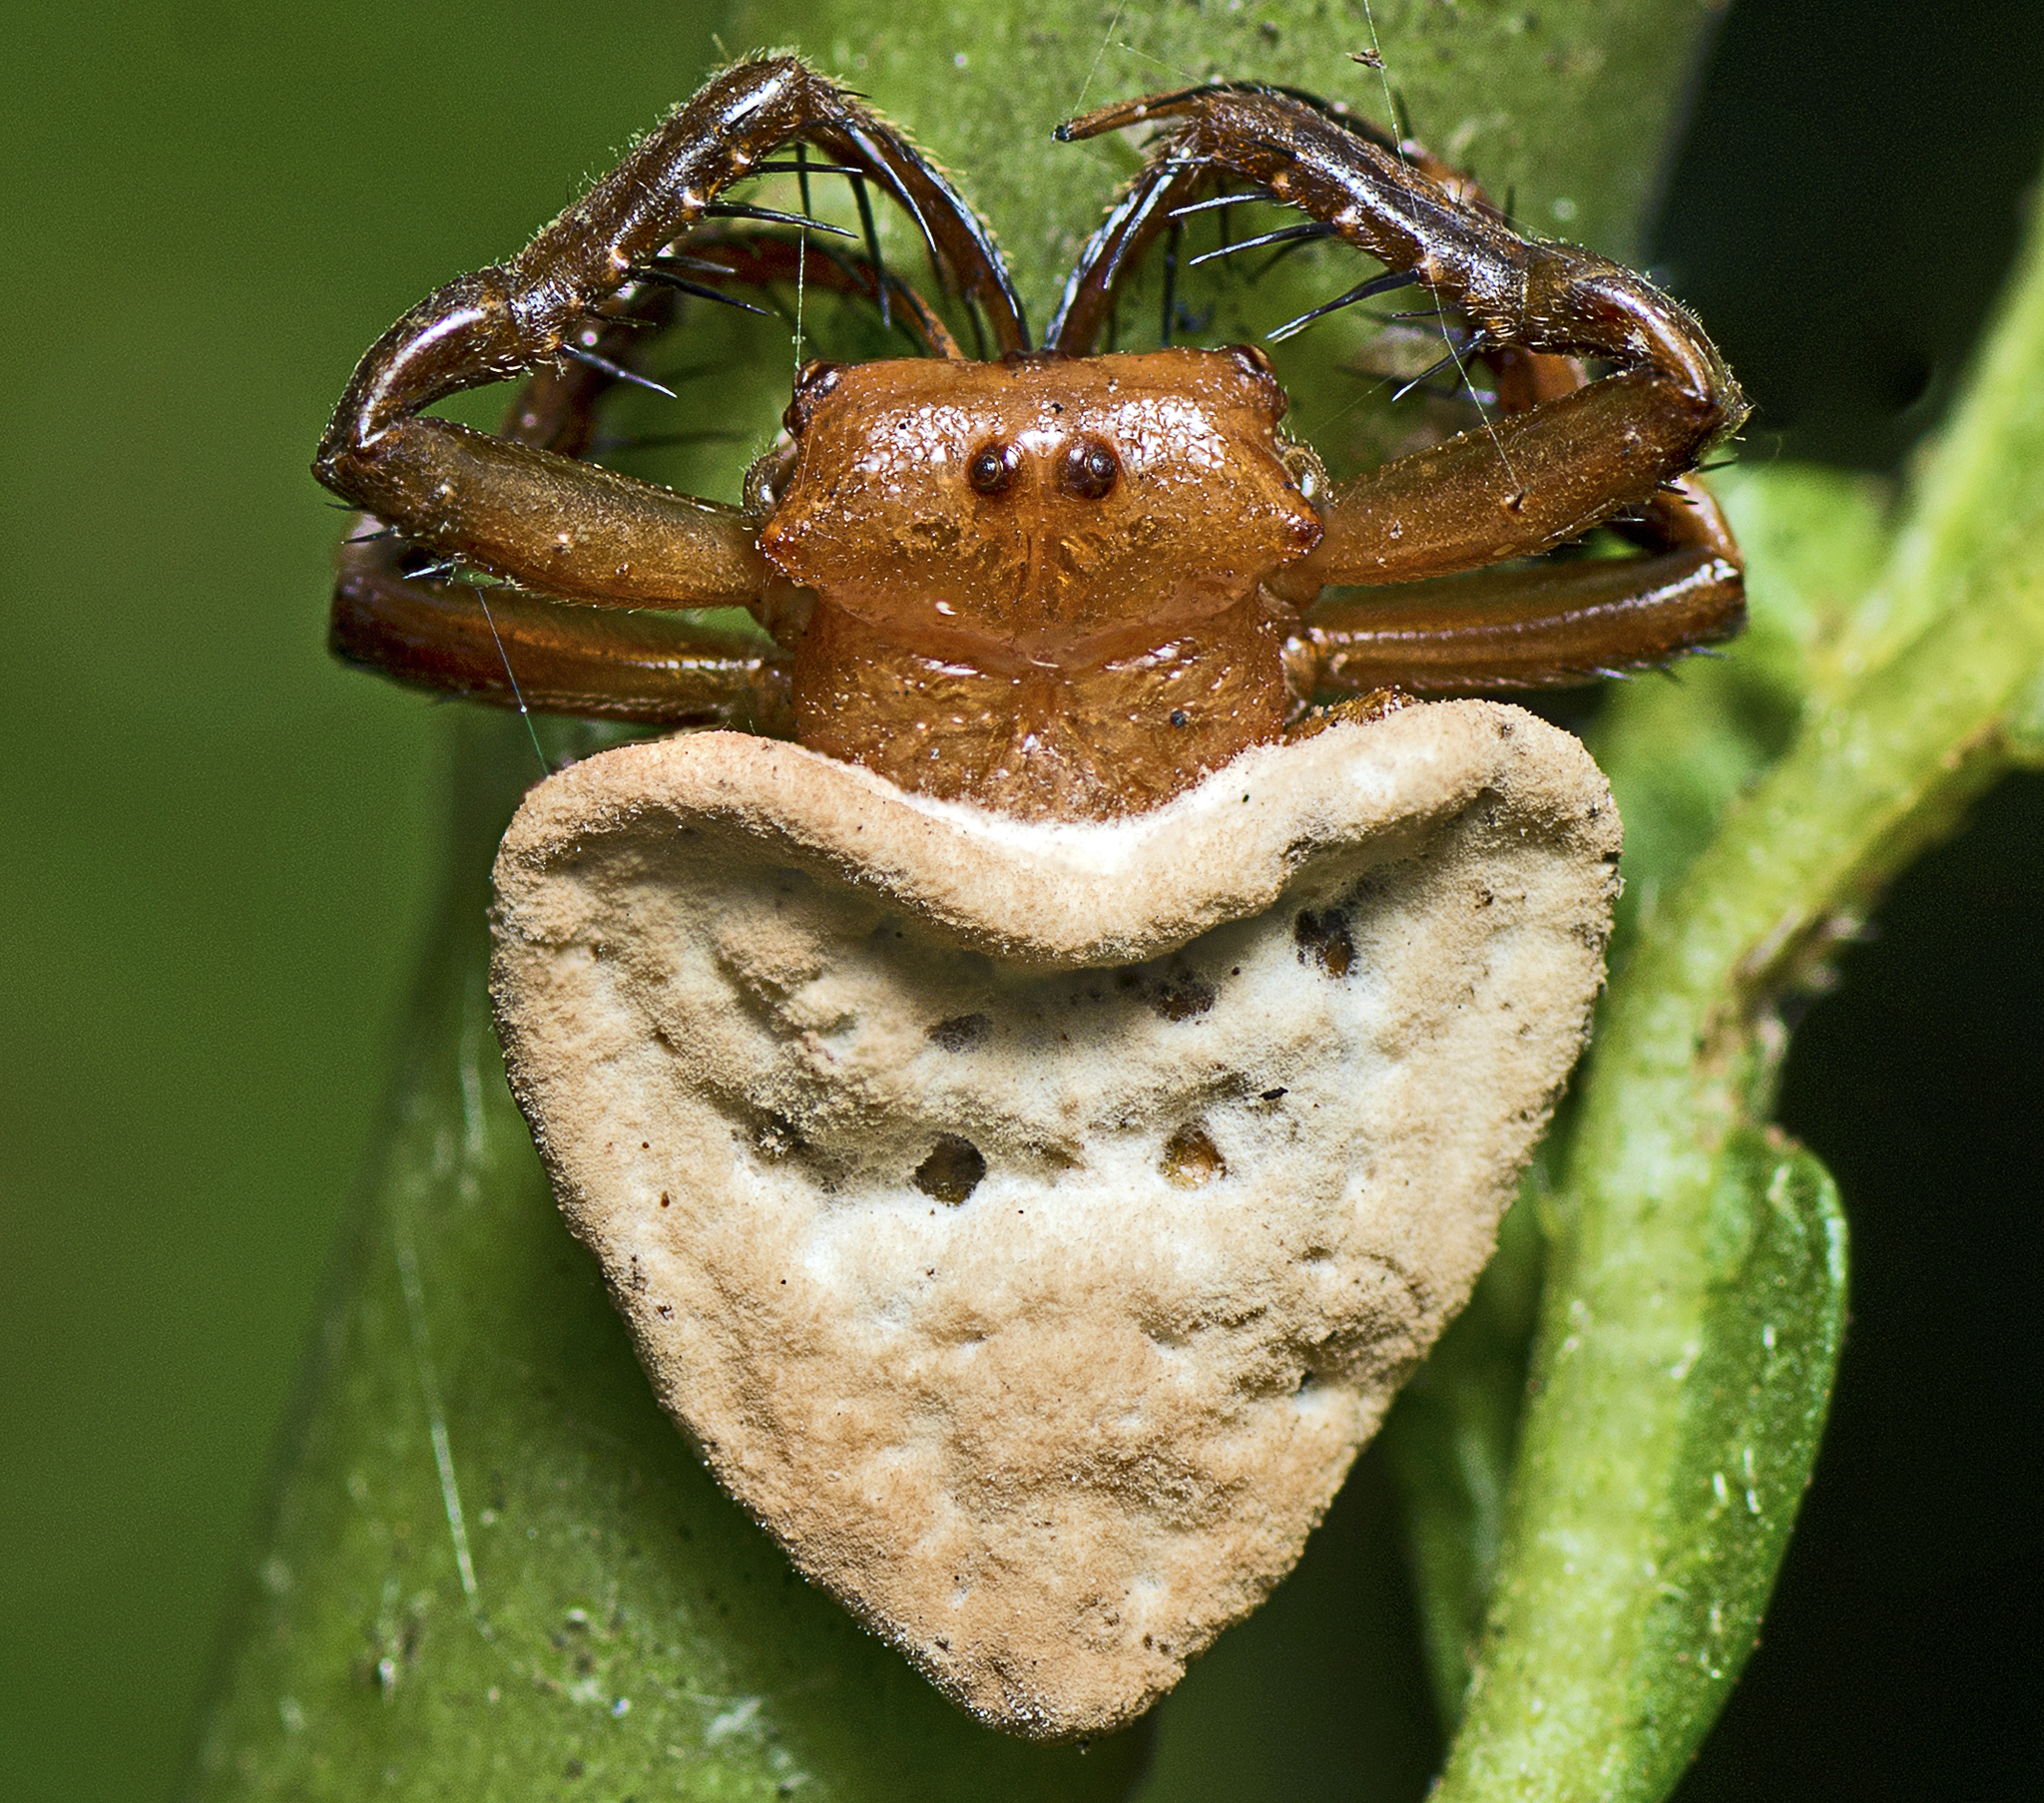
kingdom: Animalia
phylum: Arthropoda
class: Arachnida
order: Araneae
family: Arkyidae
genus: Arkys
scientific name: Arkys lancearius
